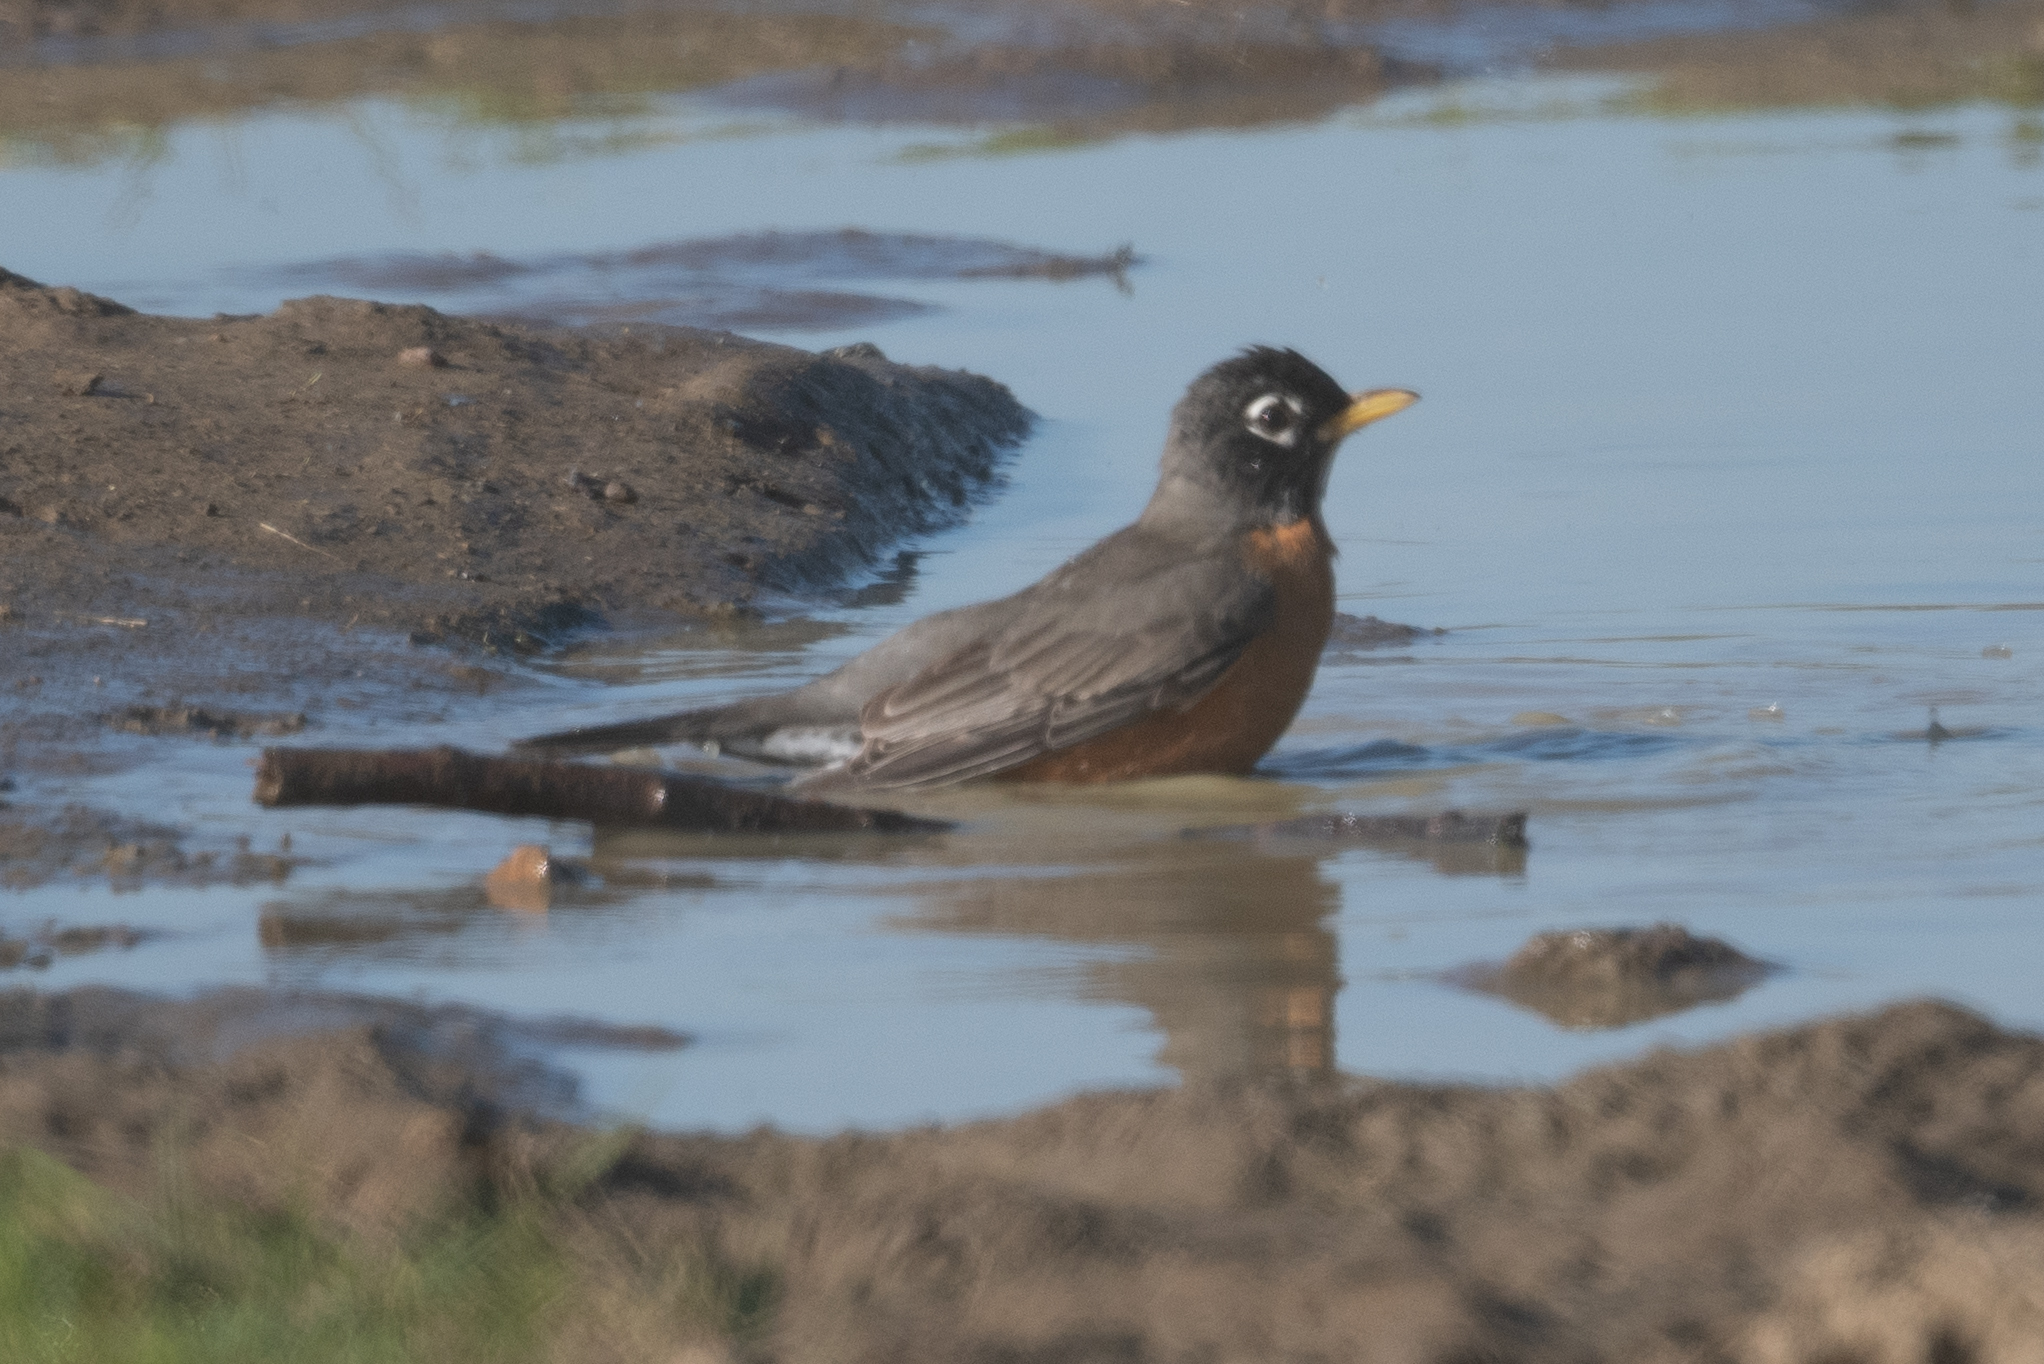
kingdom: Animalia
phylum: Chordata
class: Aves
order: Passeriformes
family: Turdidae
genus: Turdus
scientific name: Turdus migratorius
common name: American robin
